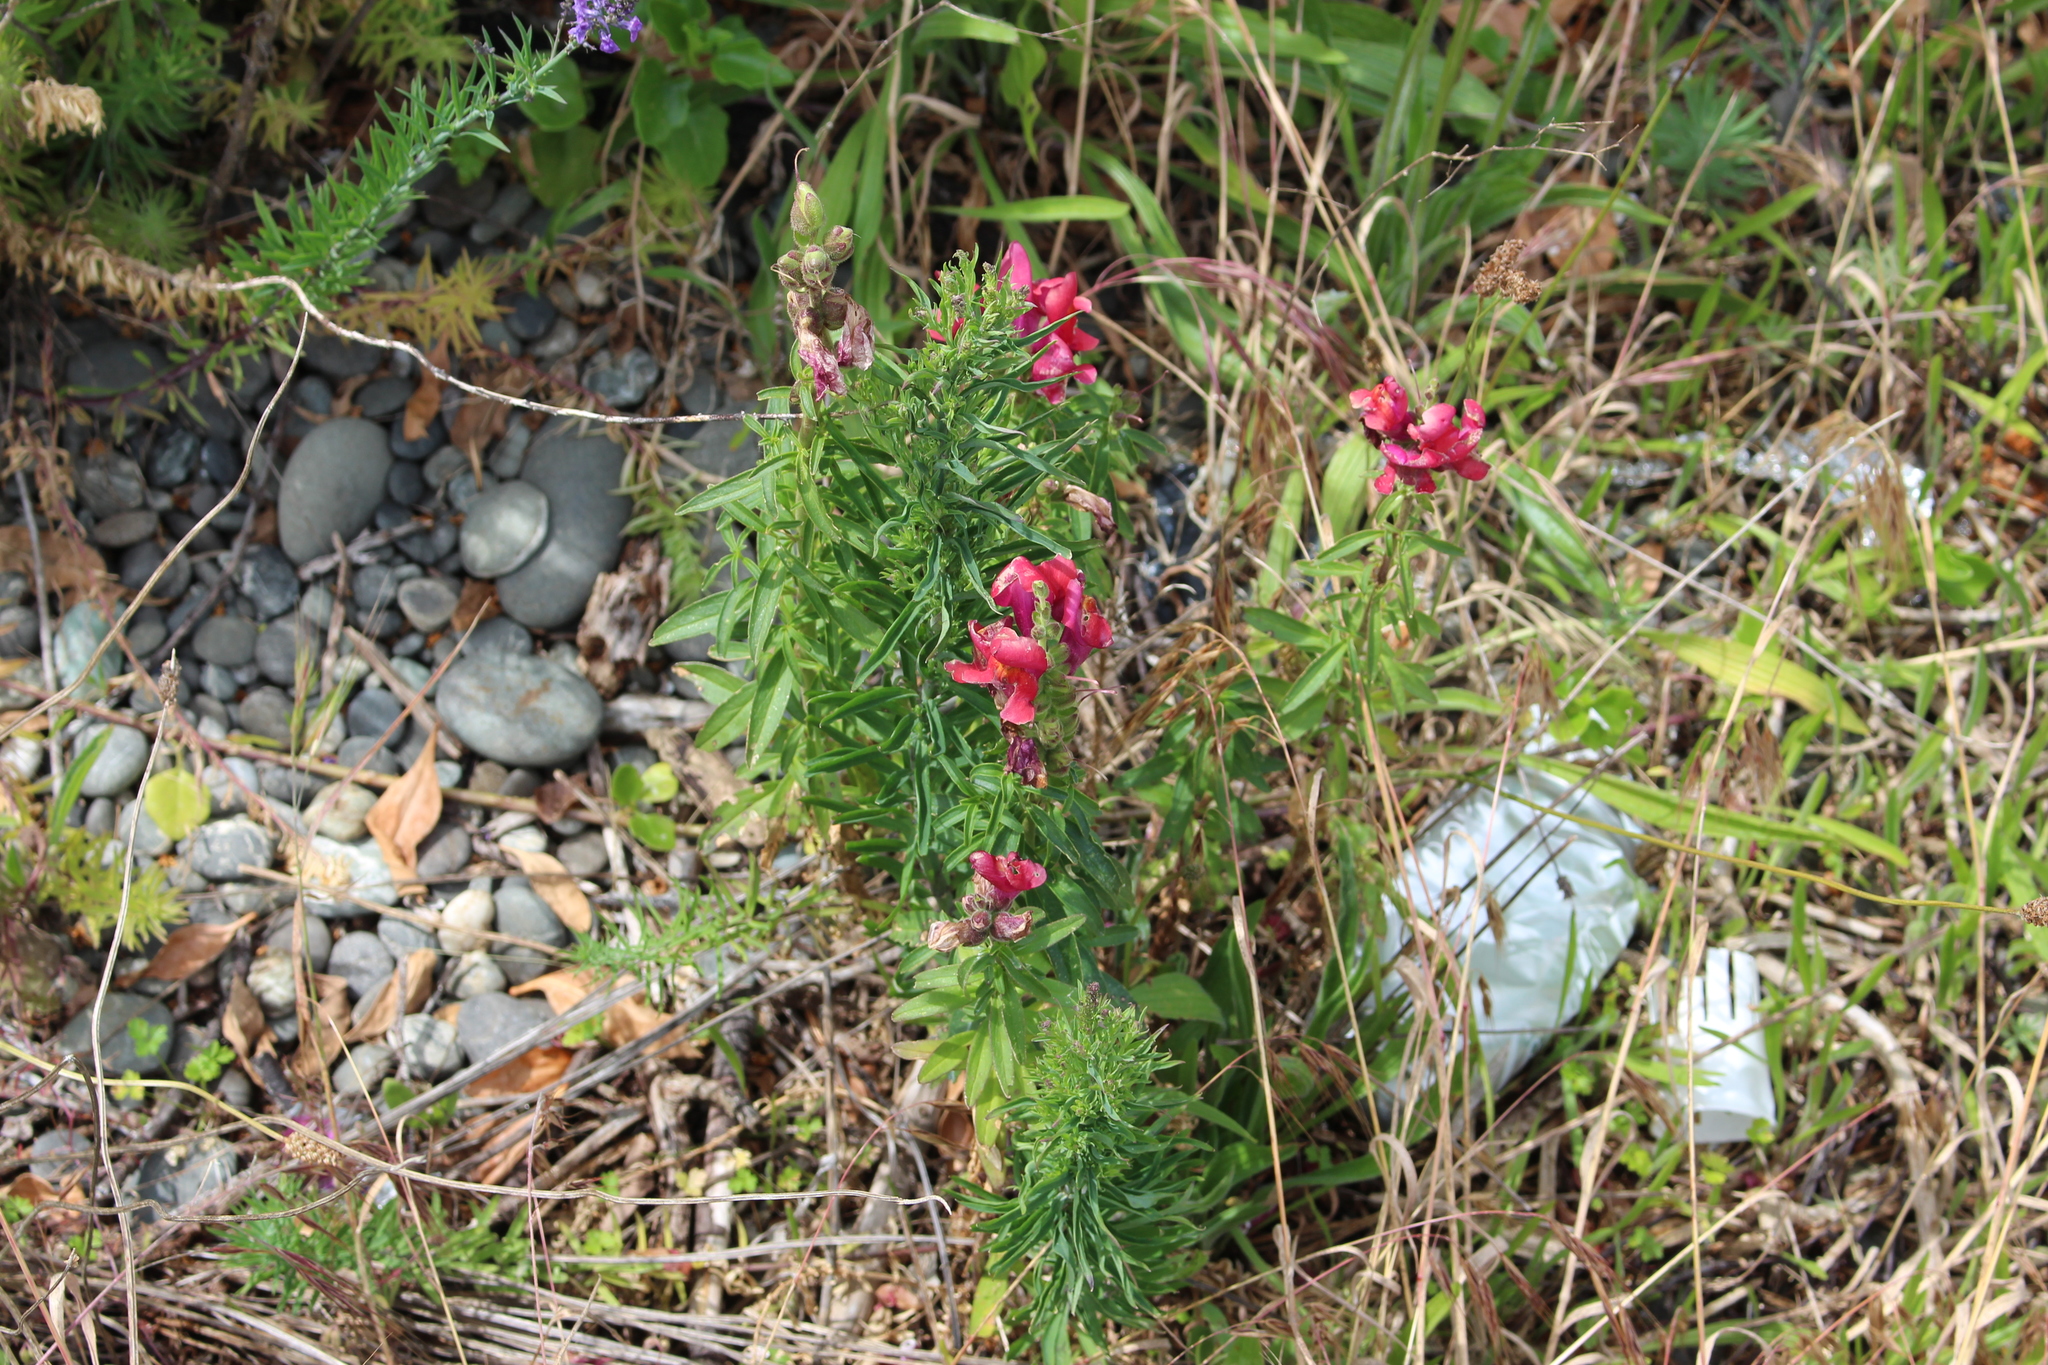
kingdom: Plantae
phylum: Tracheophyta
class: Magnoliopsida
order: Lamiales
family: Plantaginaceae
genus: Antirrhinum
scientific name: Antirrhinum majus
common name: Snapdragon
